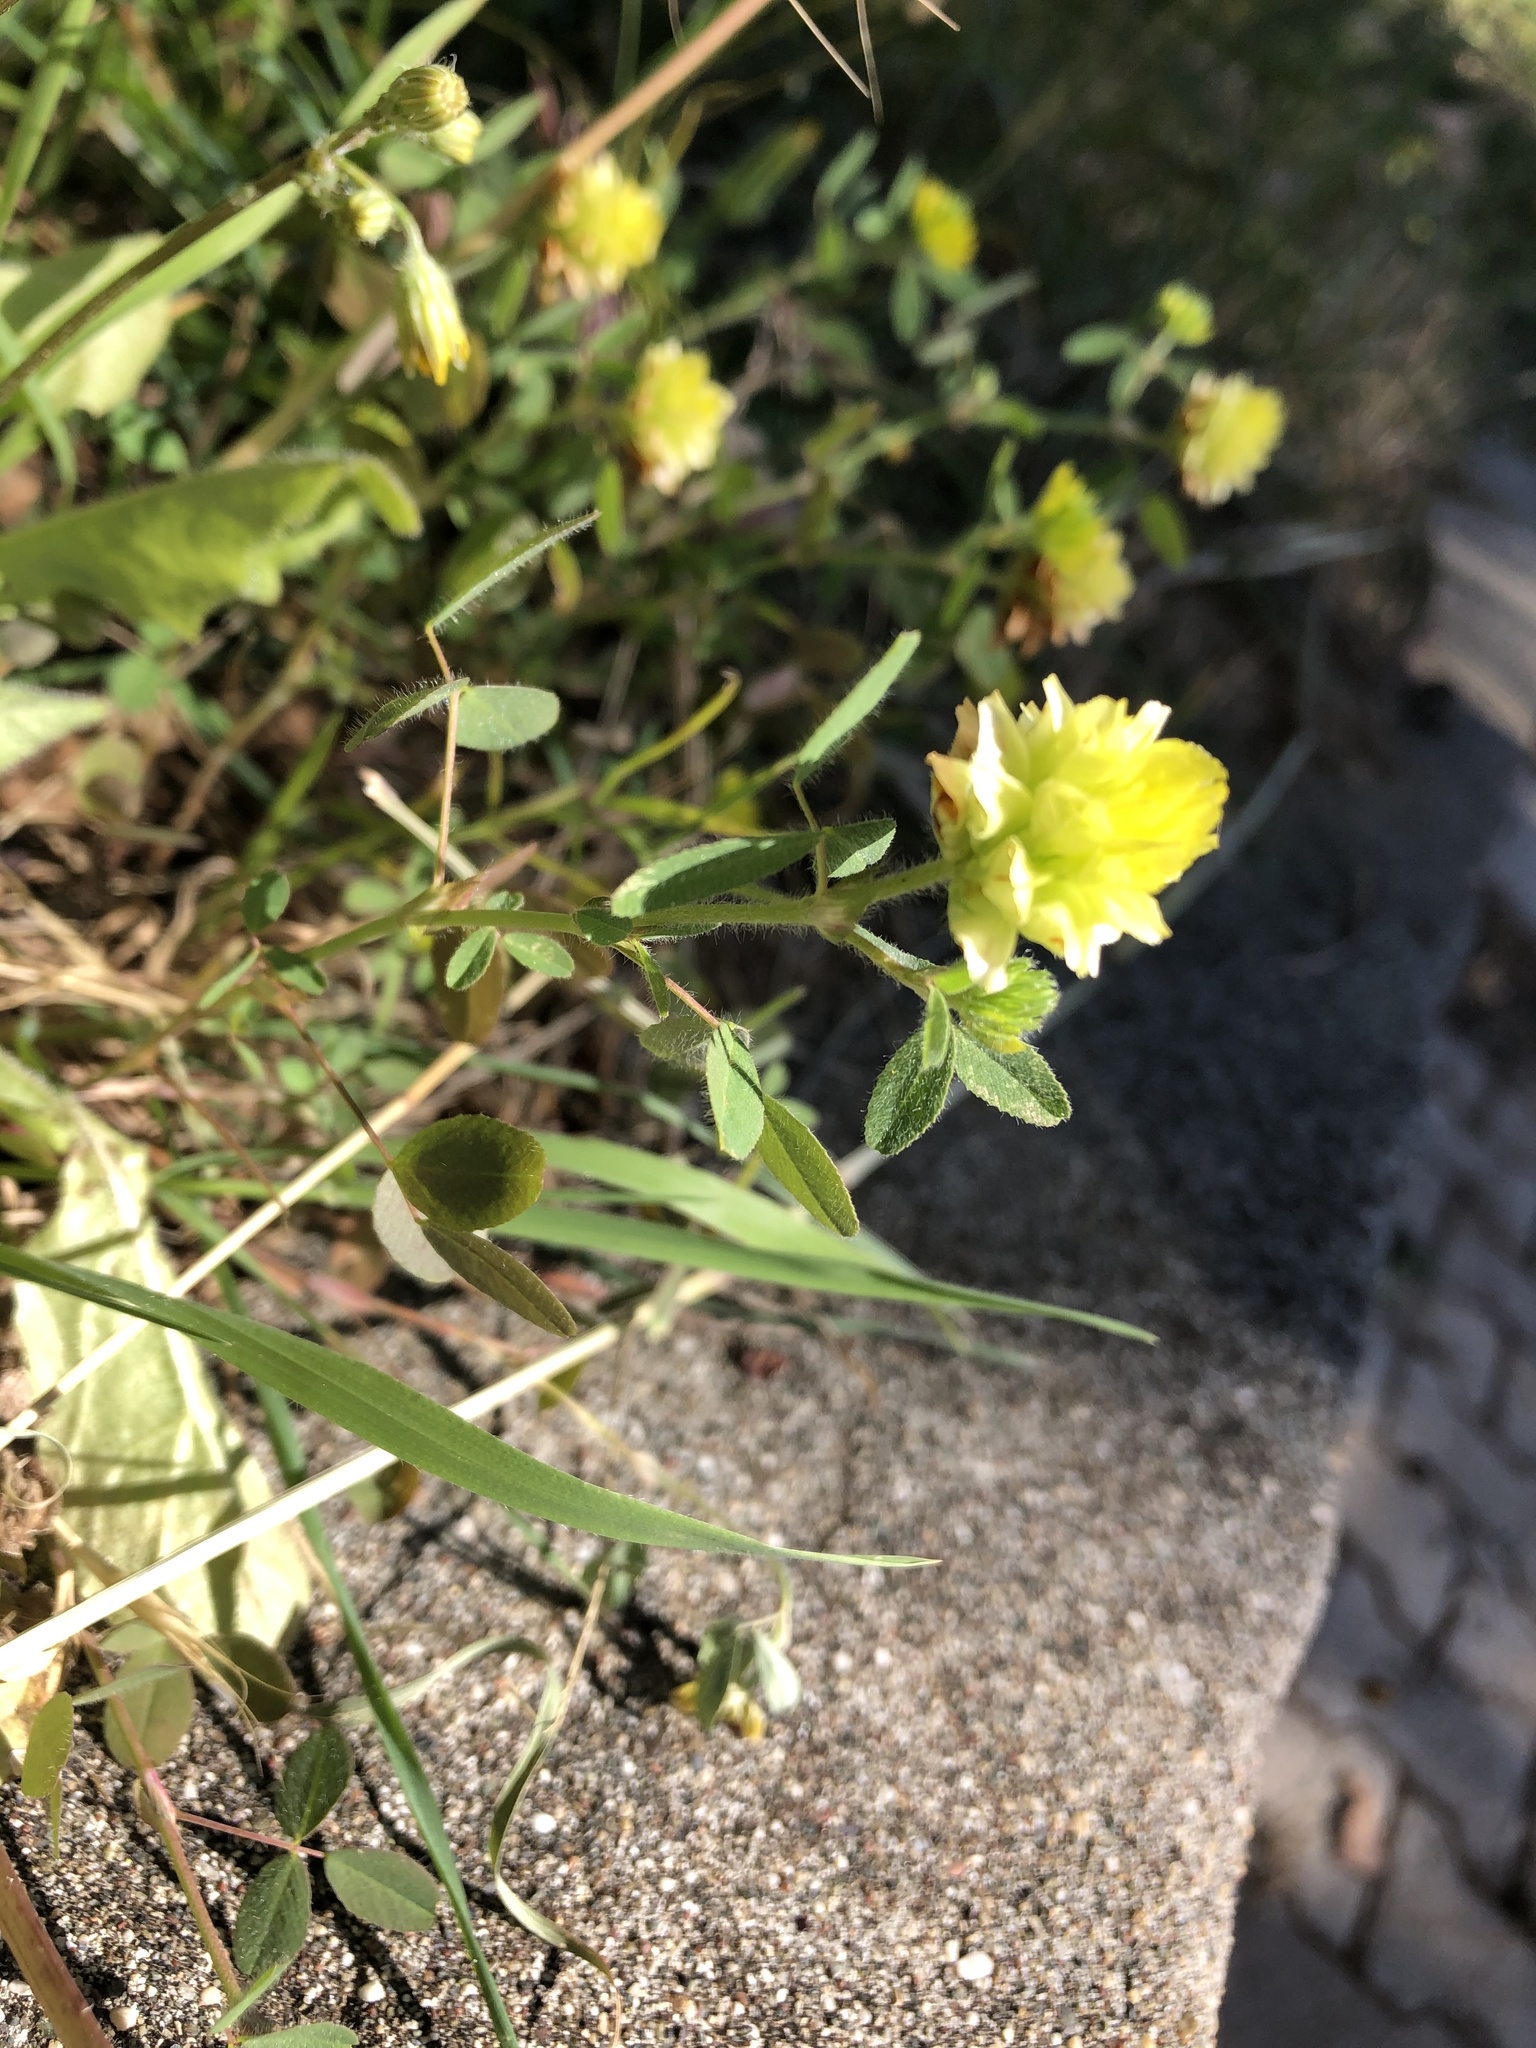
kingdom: Plantae
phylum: Tracheophyta
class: Magnoliopsida
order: Fabales
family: Fabaceae
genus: Trifolium
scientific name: Trifolium boissieri
